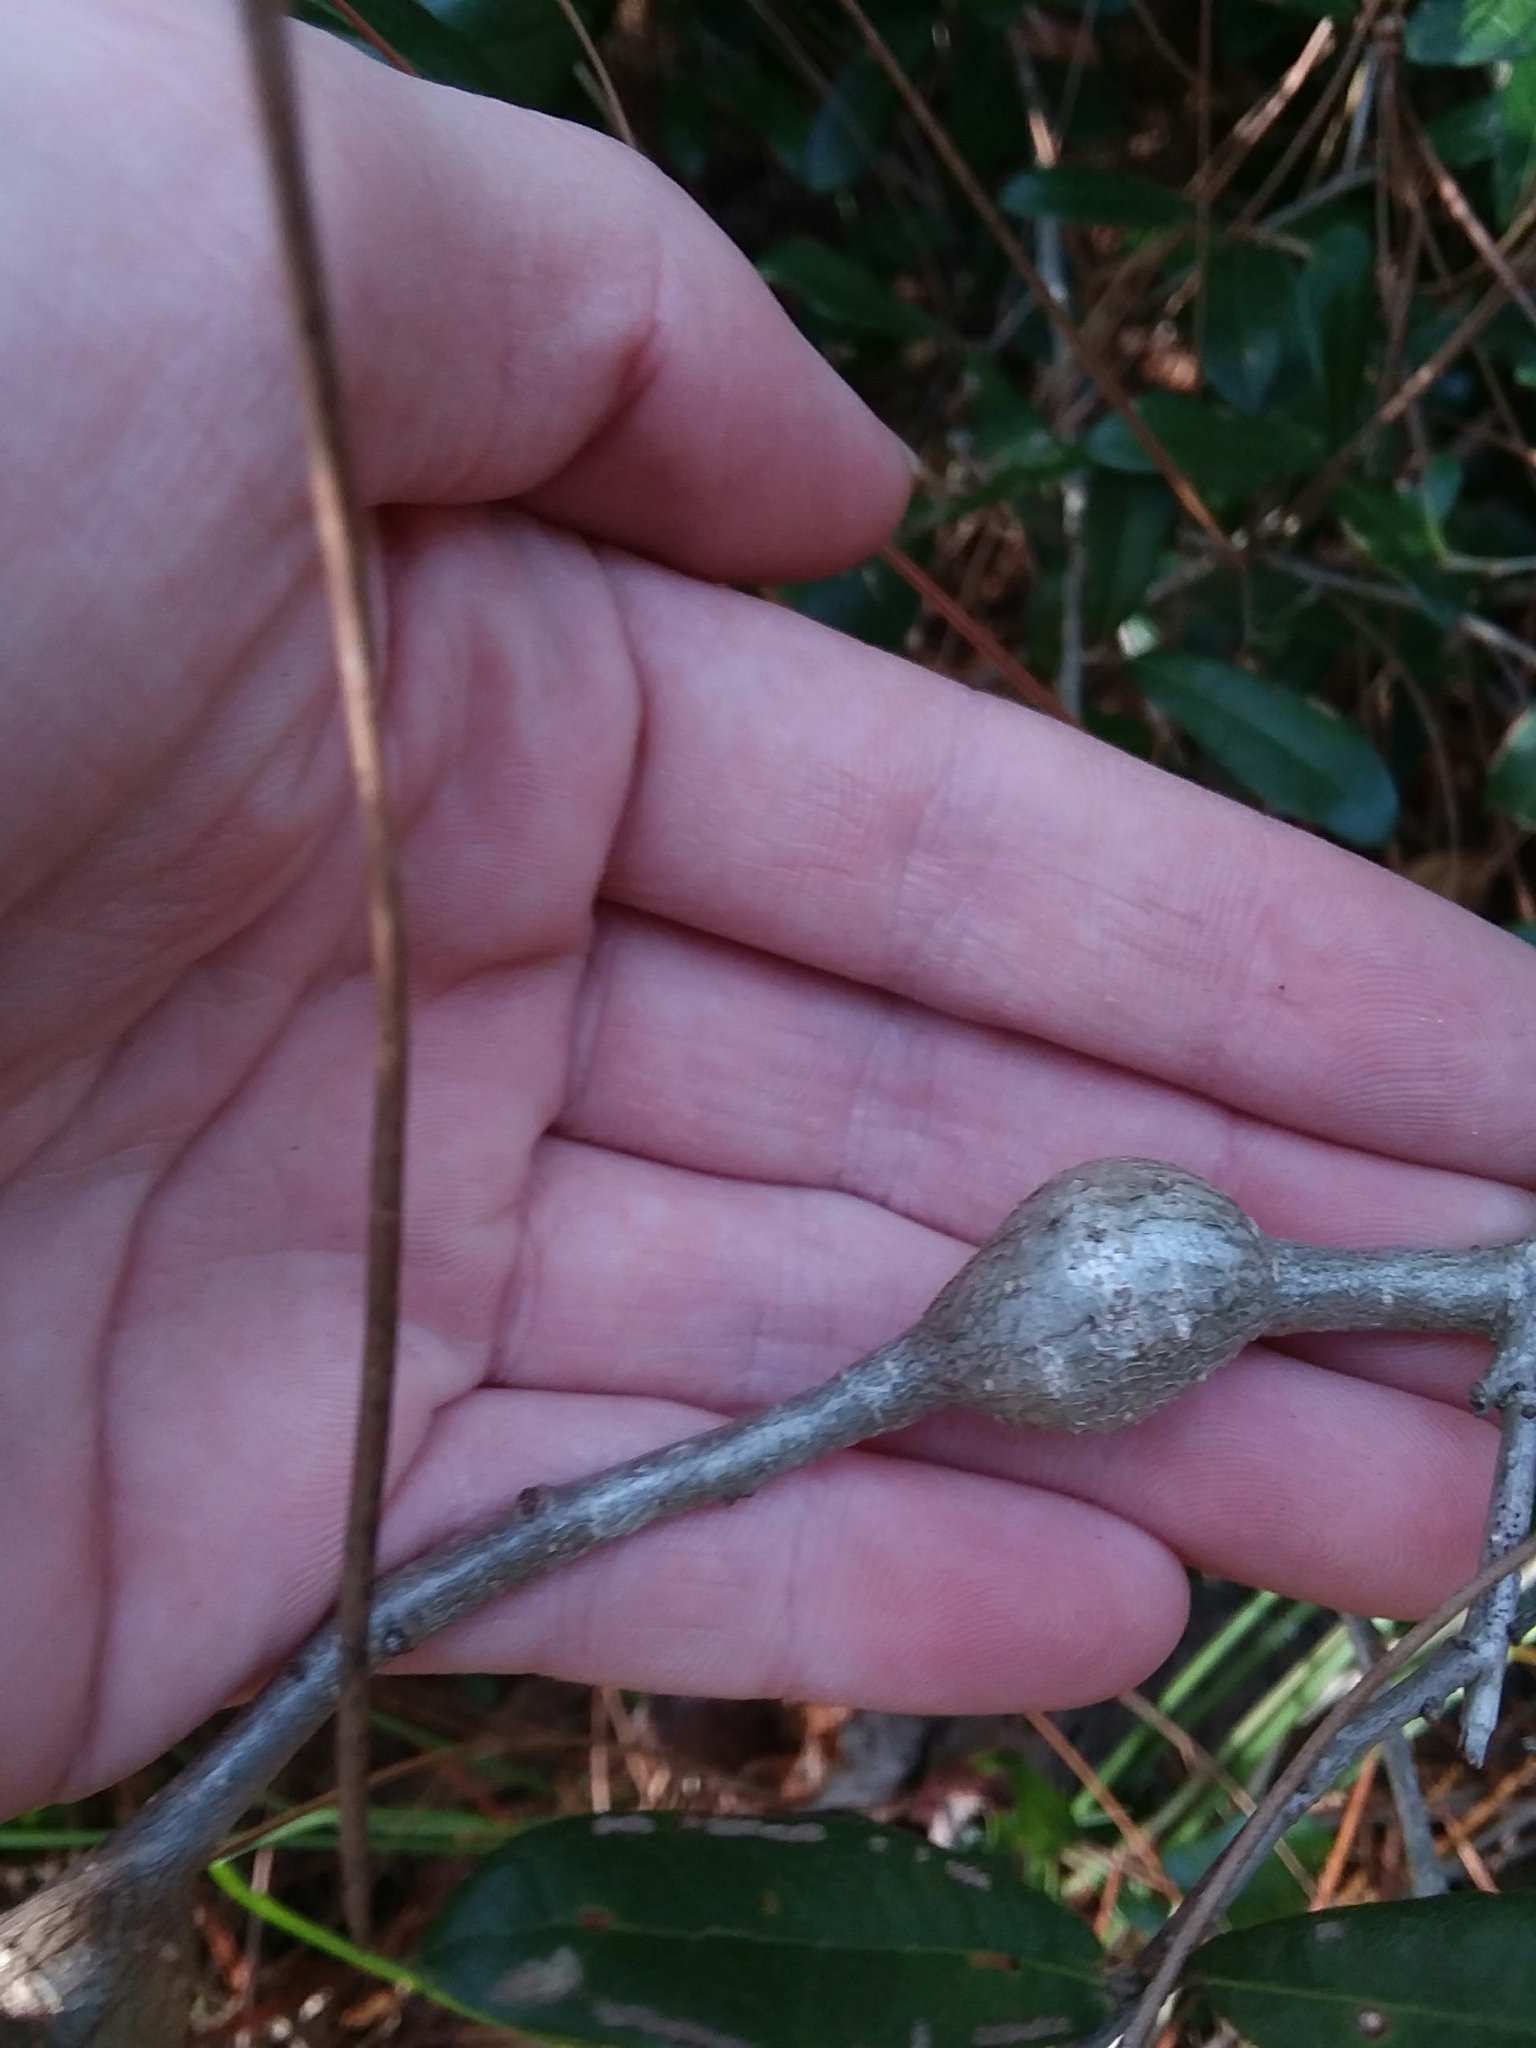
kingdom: Animalia
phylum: Arthropoda
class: Insecta
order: Hymenoptera
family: Cynipidae
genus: Callirhytis
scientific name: Callirhytis
